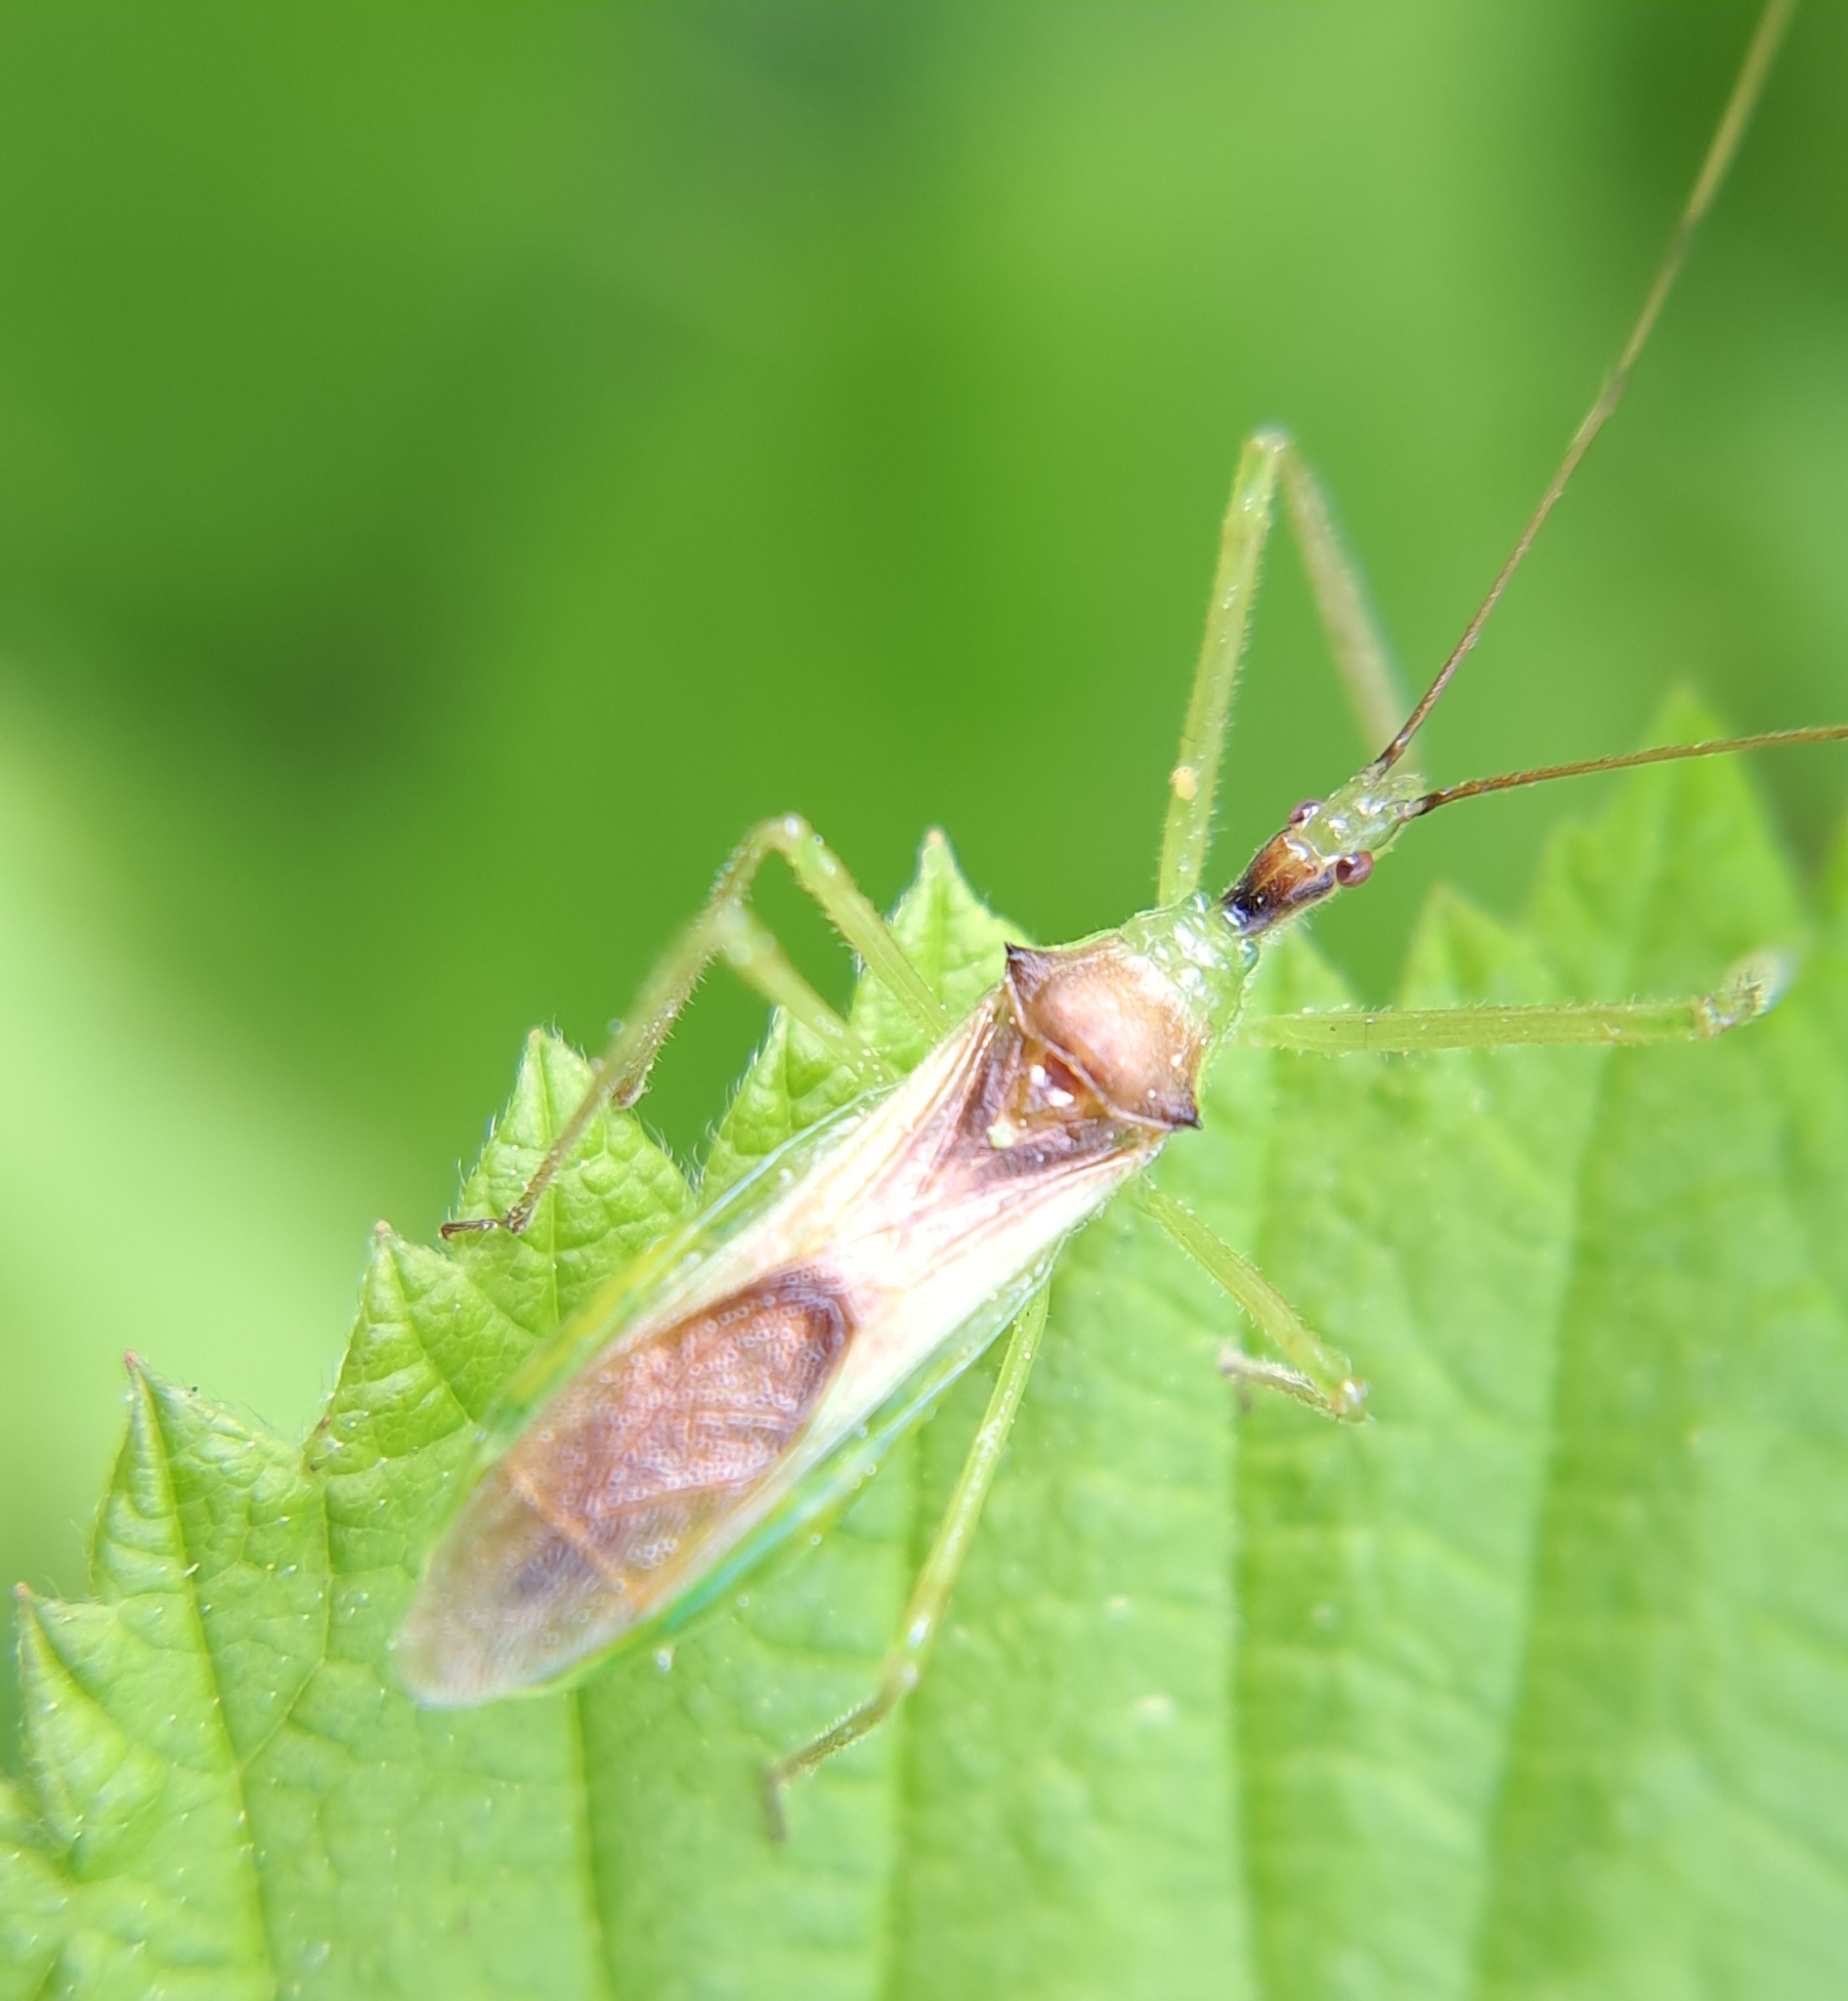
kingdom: Animalia
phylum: Arthropoda
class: Insecta
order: Hemiptera
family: Reduviidae
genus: Zelus
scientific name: Zelus luridus
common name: Pale green assassin bug
